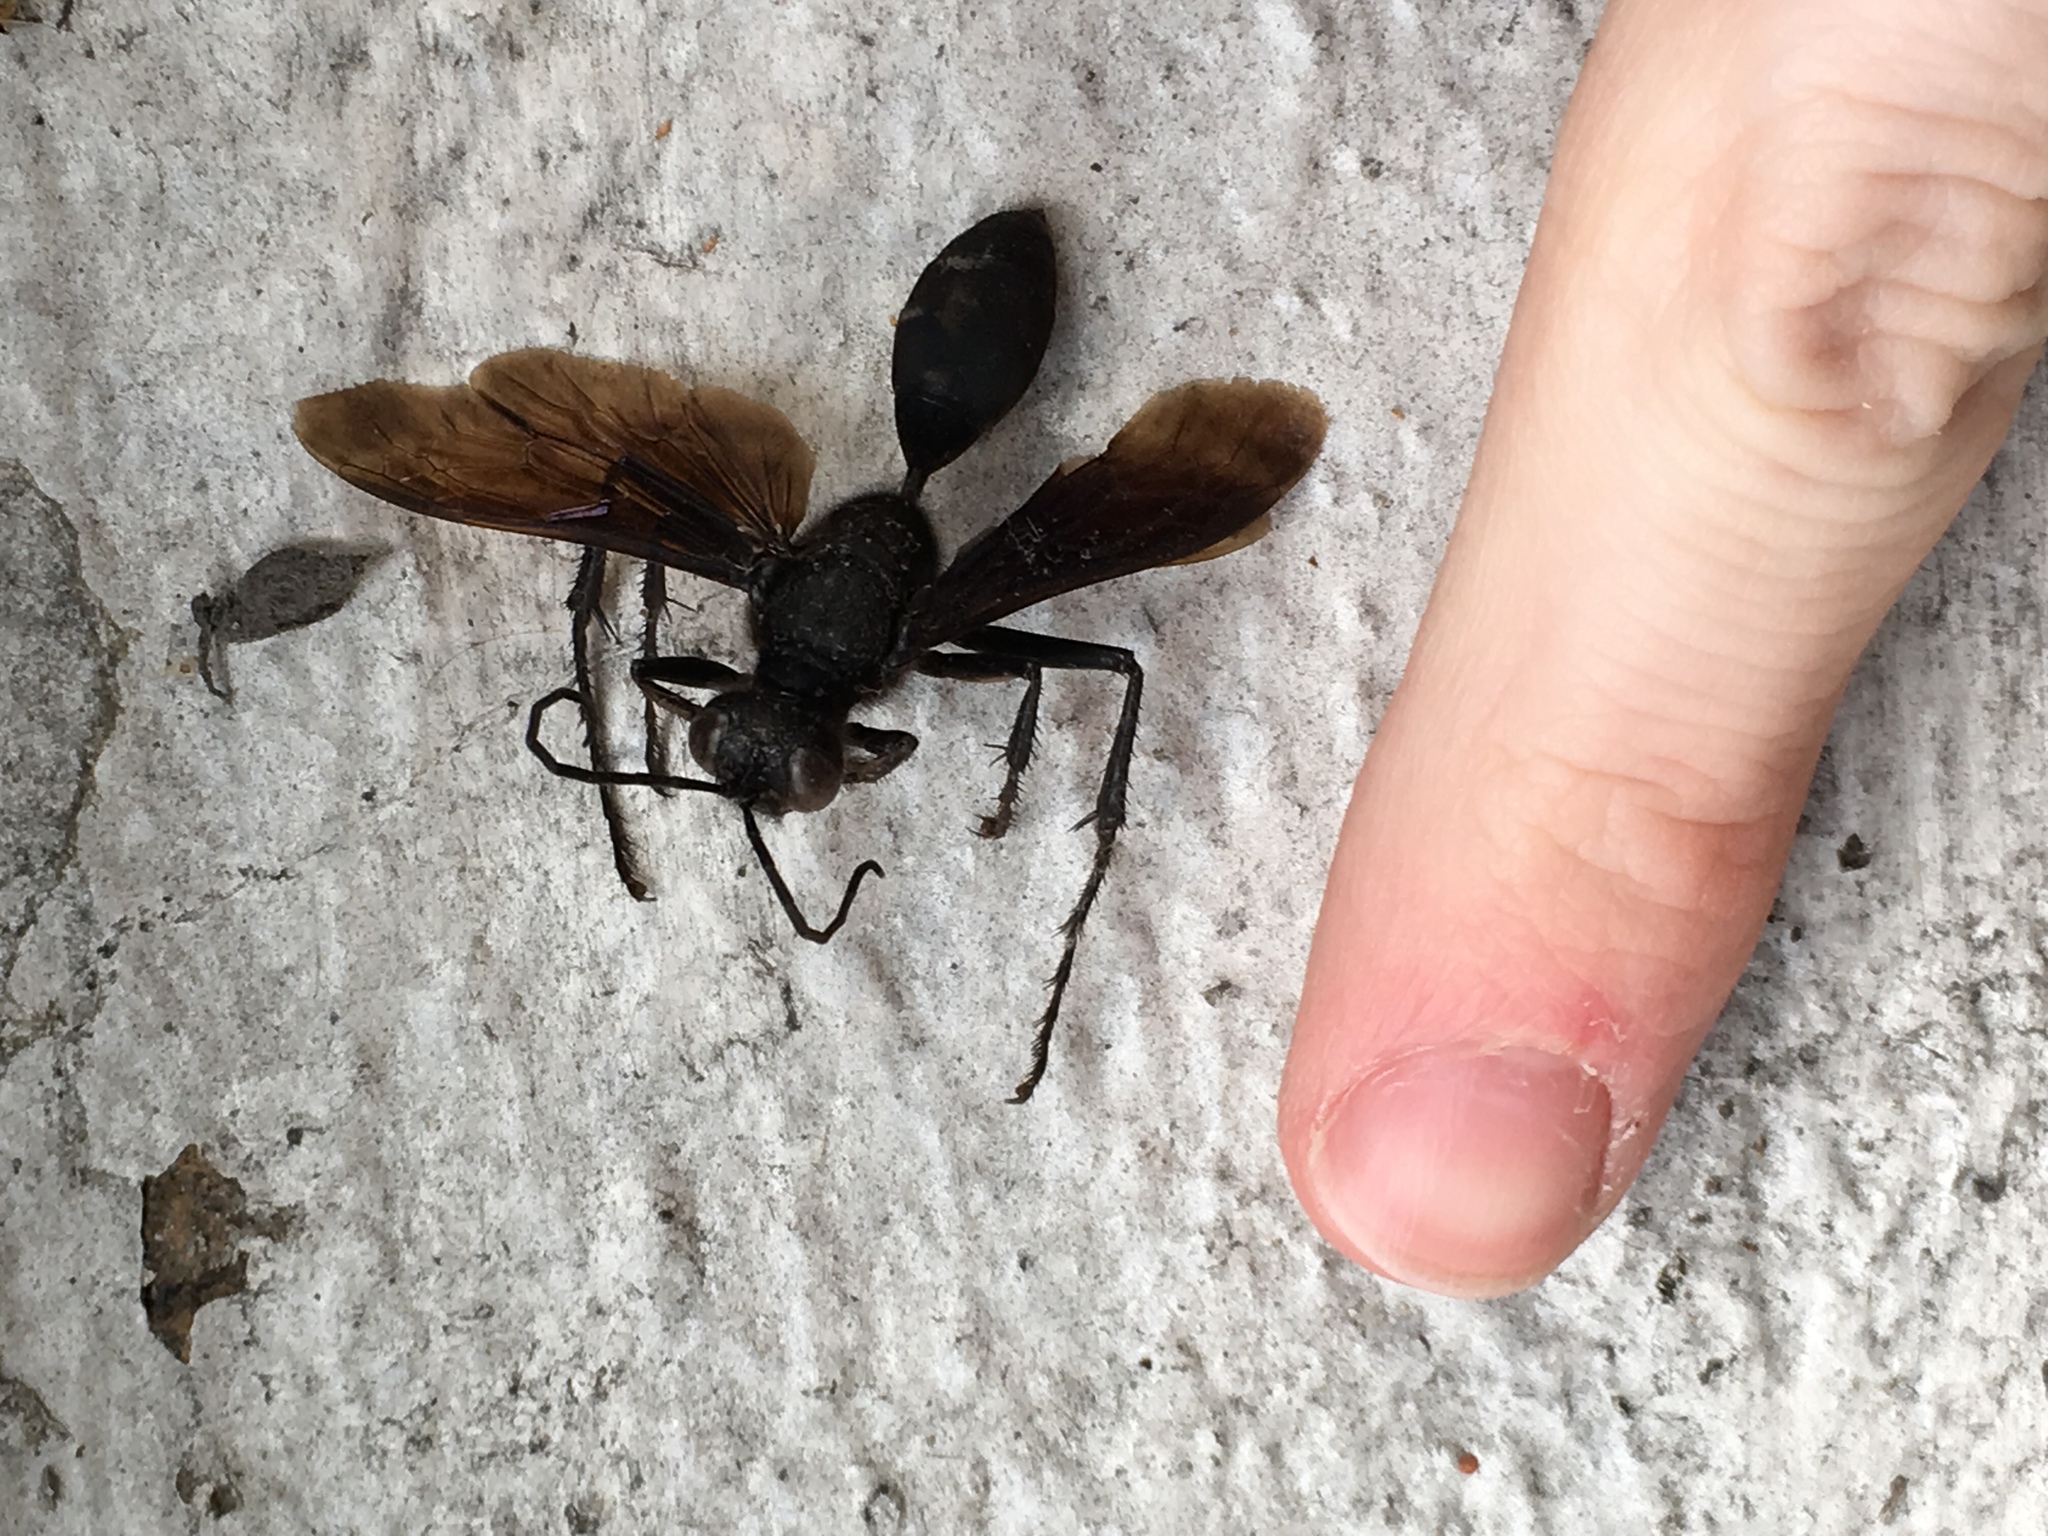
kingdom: Animalia
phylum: Arthropoda
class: Insecta
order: Hymenoptera
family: Sphecidae
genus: Sphex
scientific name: Sphex pensylvanicus
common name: Great black digger wasp
